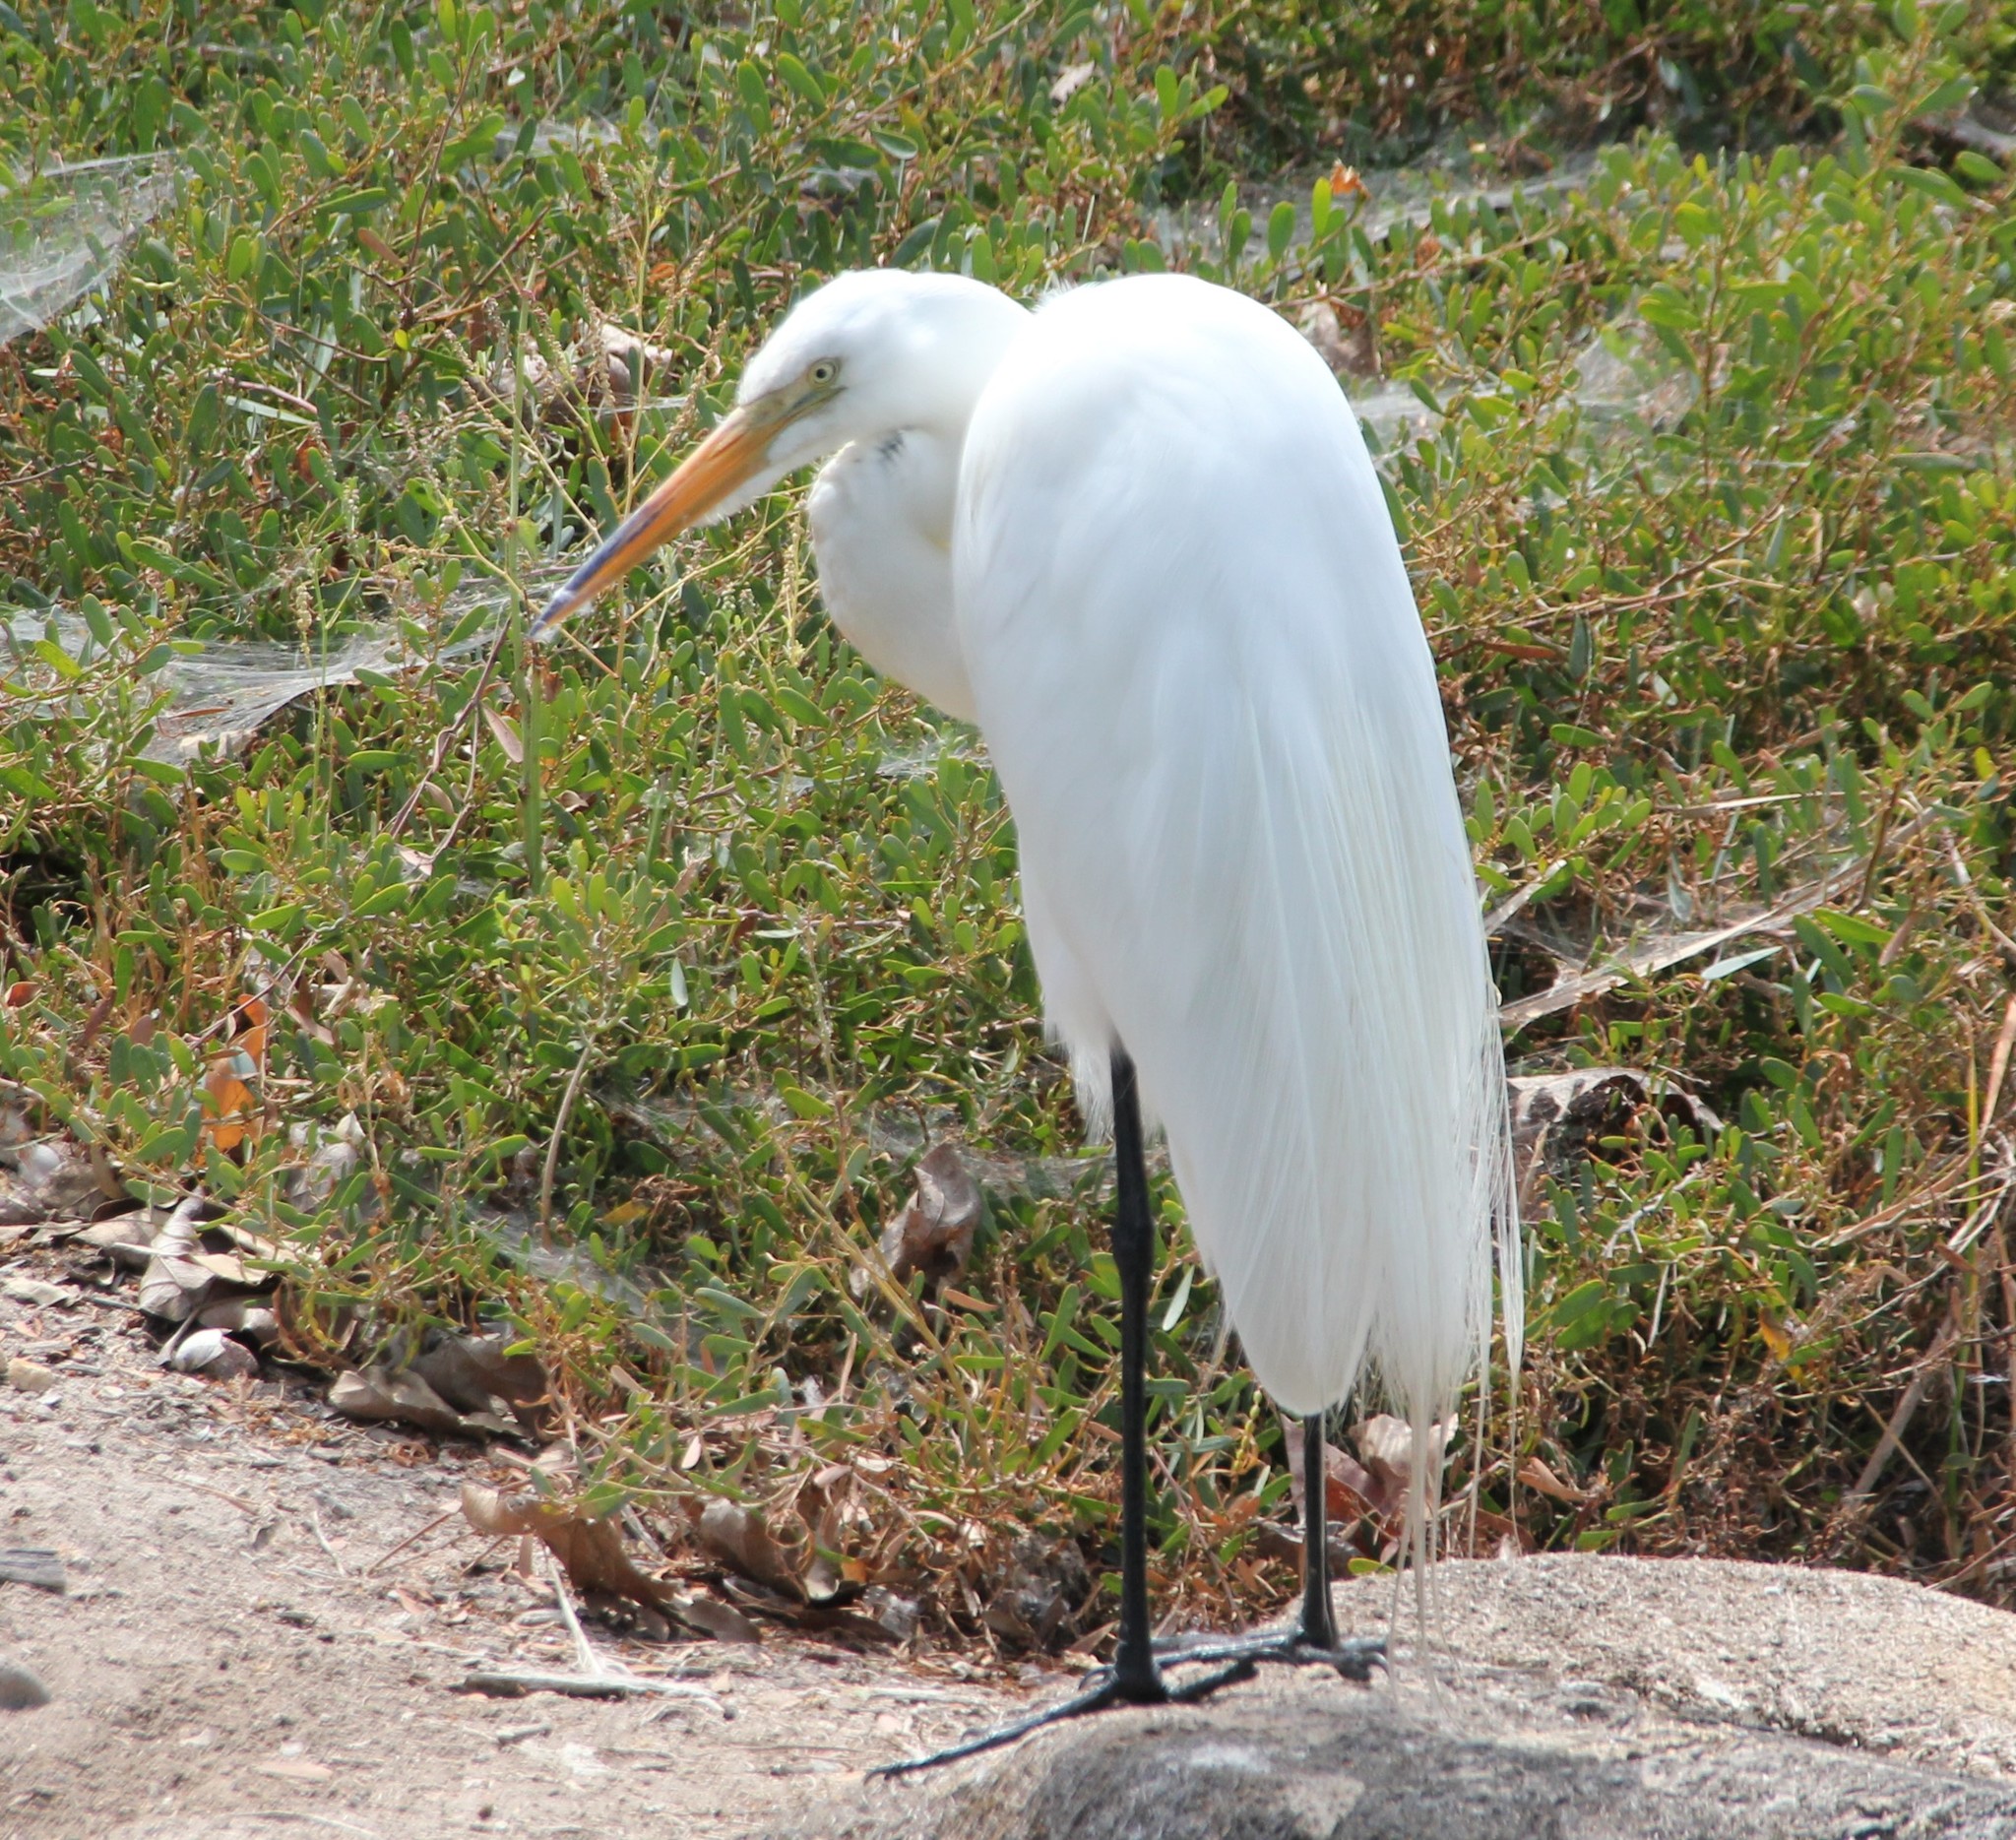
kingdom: Animalia
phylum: Chordata
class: Aves
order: Pelecaniformes
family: Ardeidae
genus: Ardea
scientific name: Ardea alba
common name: Great egret
